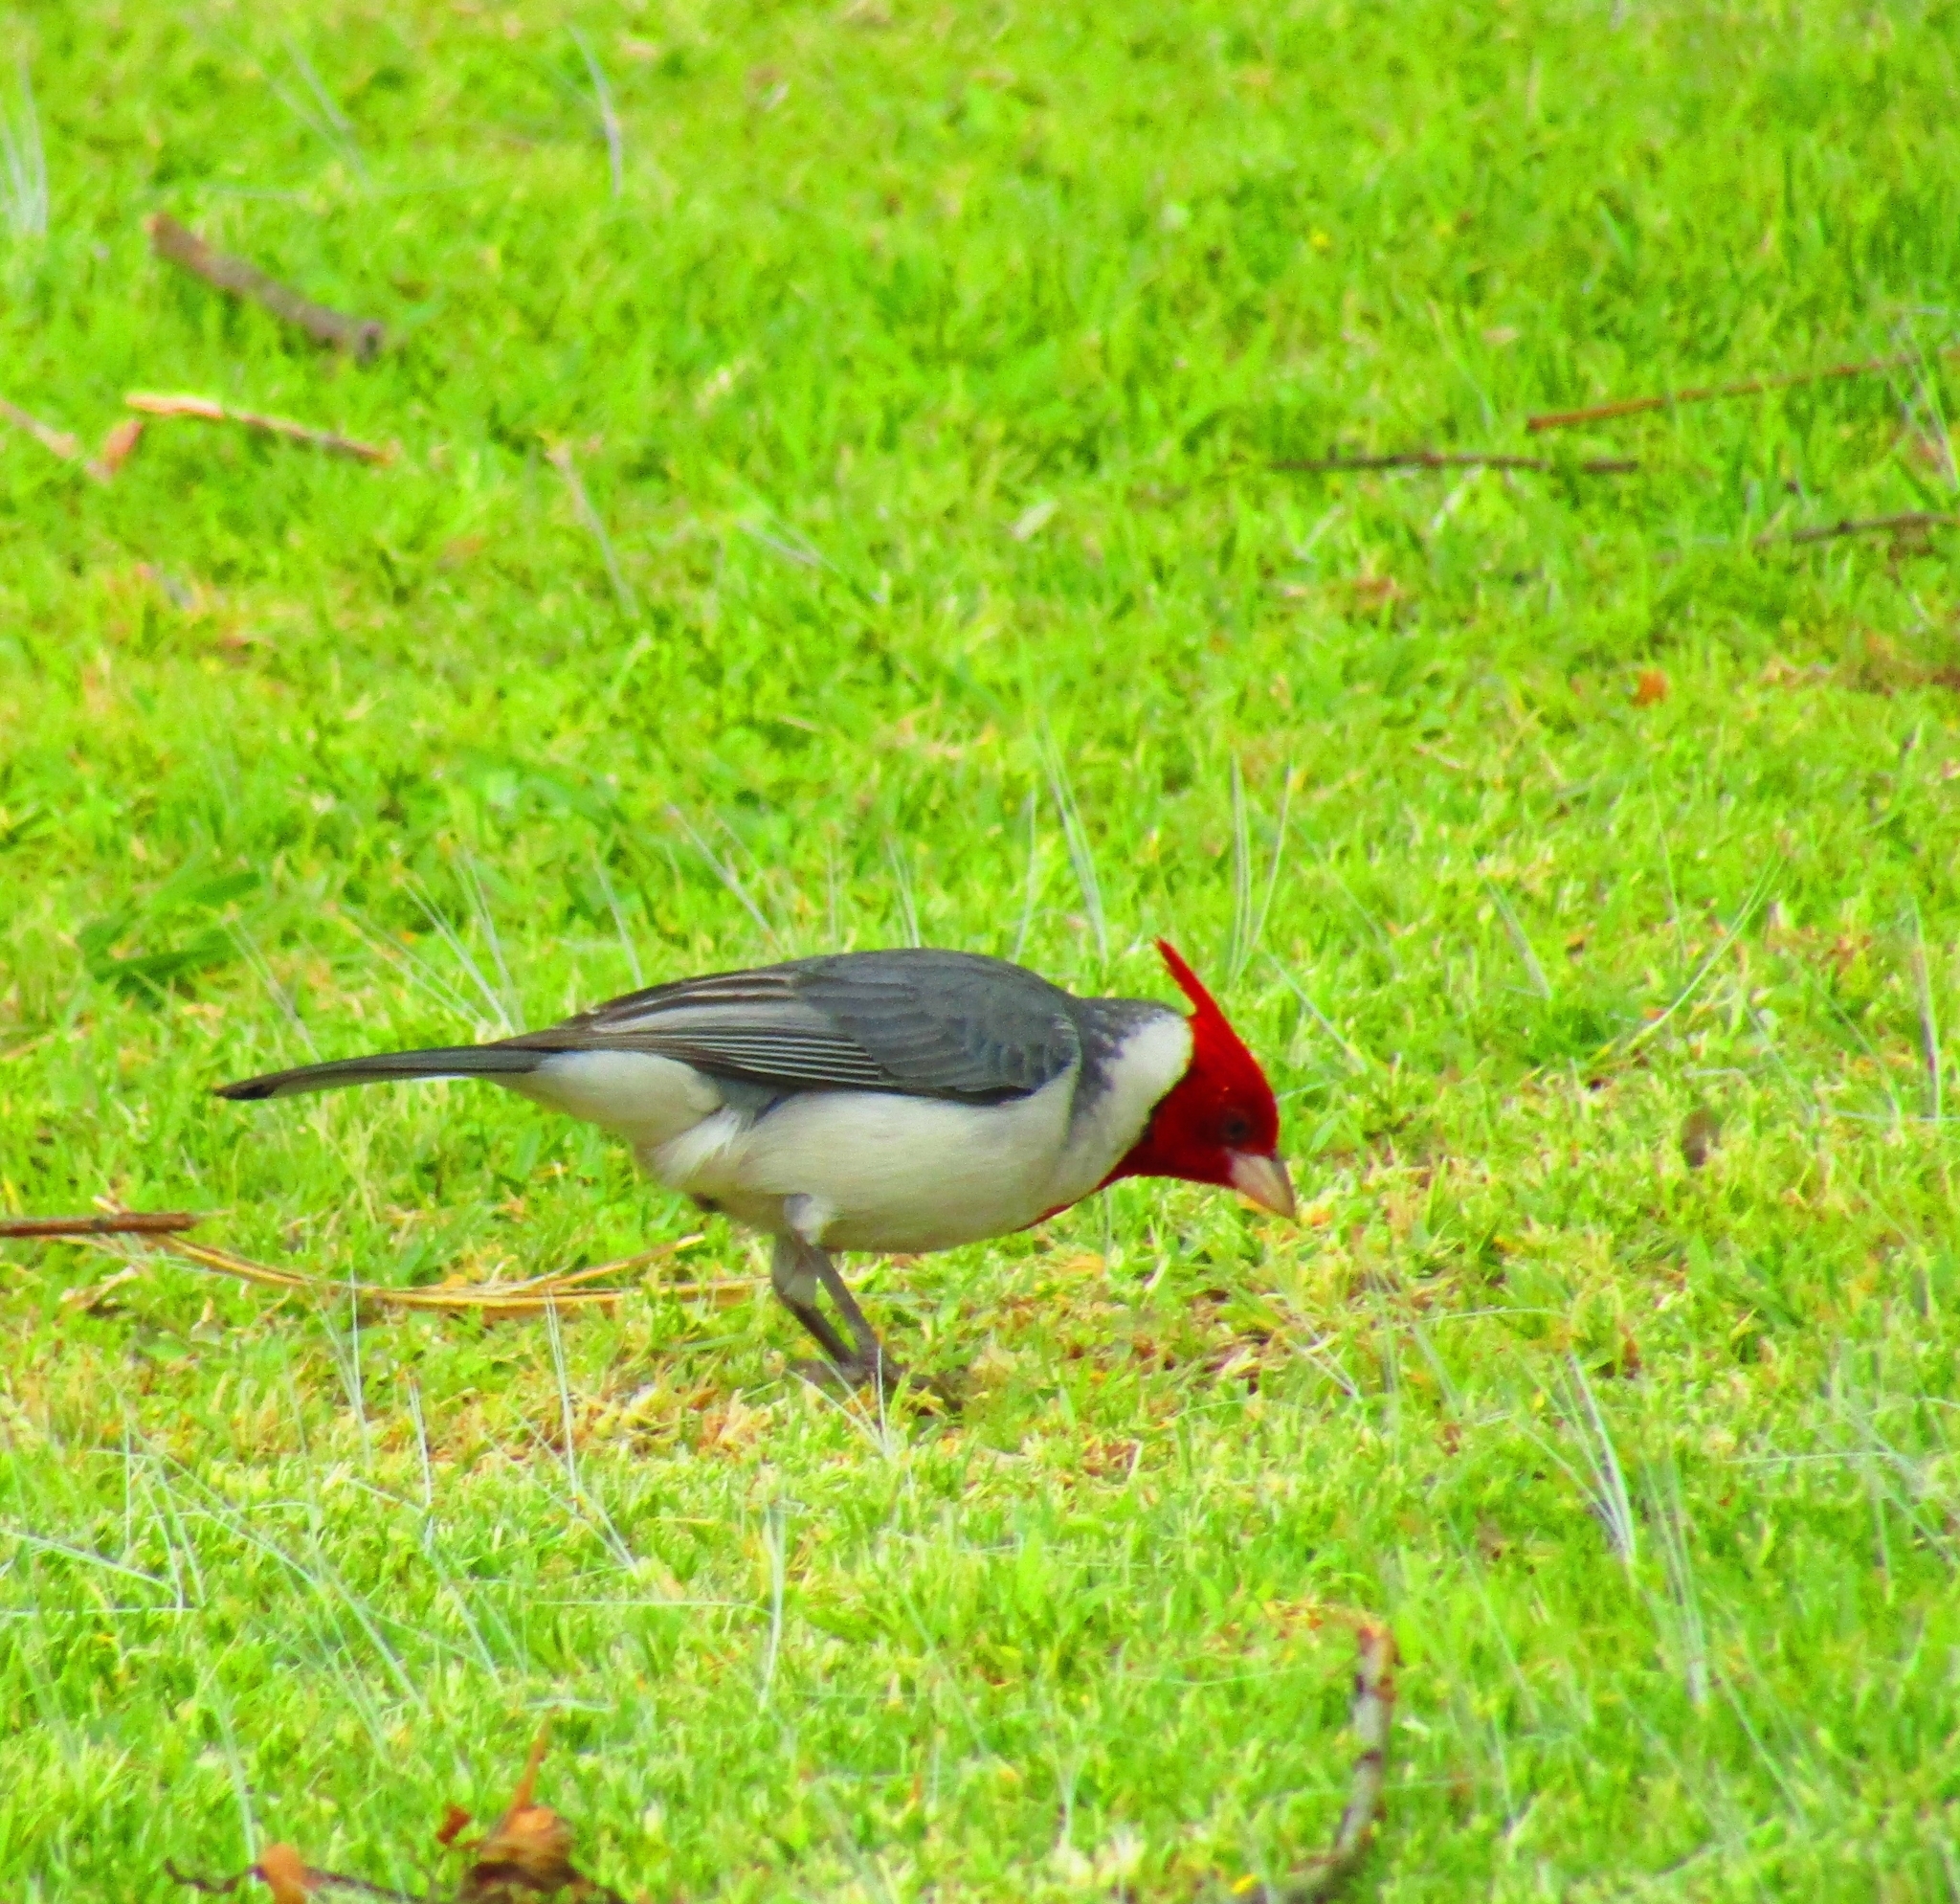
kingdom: Animalia
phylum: Chordata
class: Aves
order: Passeriformes
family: Thraupidae
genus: Paroaria
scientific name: Paroaria coronata
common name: Red-crested cardinal
